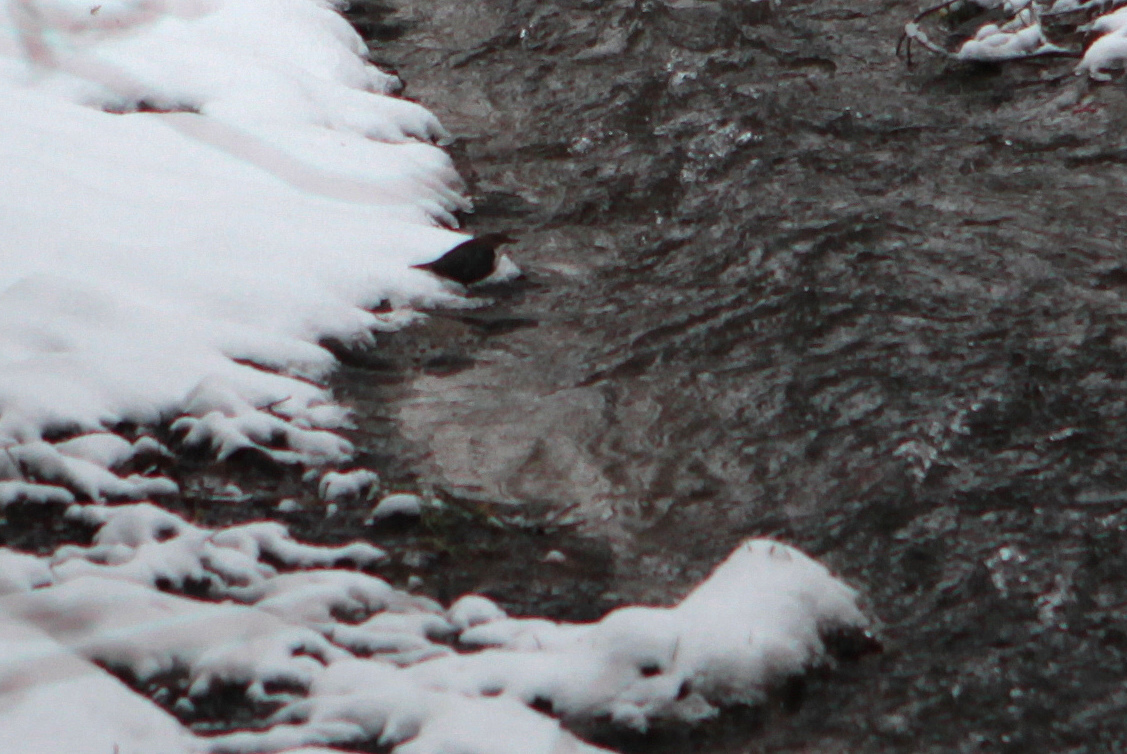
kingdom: Animalia
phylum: Chordata
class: Aves
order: Passeriformes
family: Cinclidae
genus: Cinclus
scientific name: Cinclus cinclus
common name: White-throated dipper
